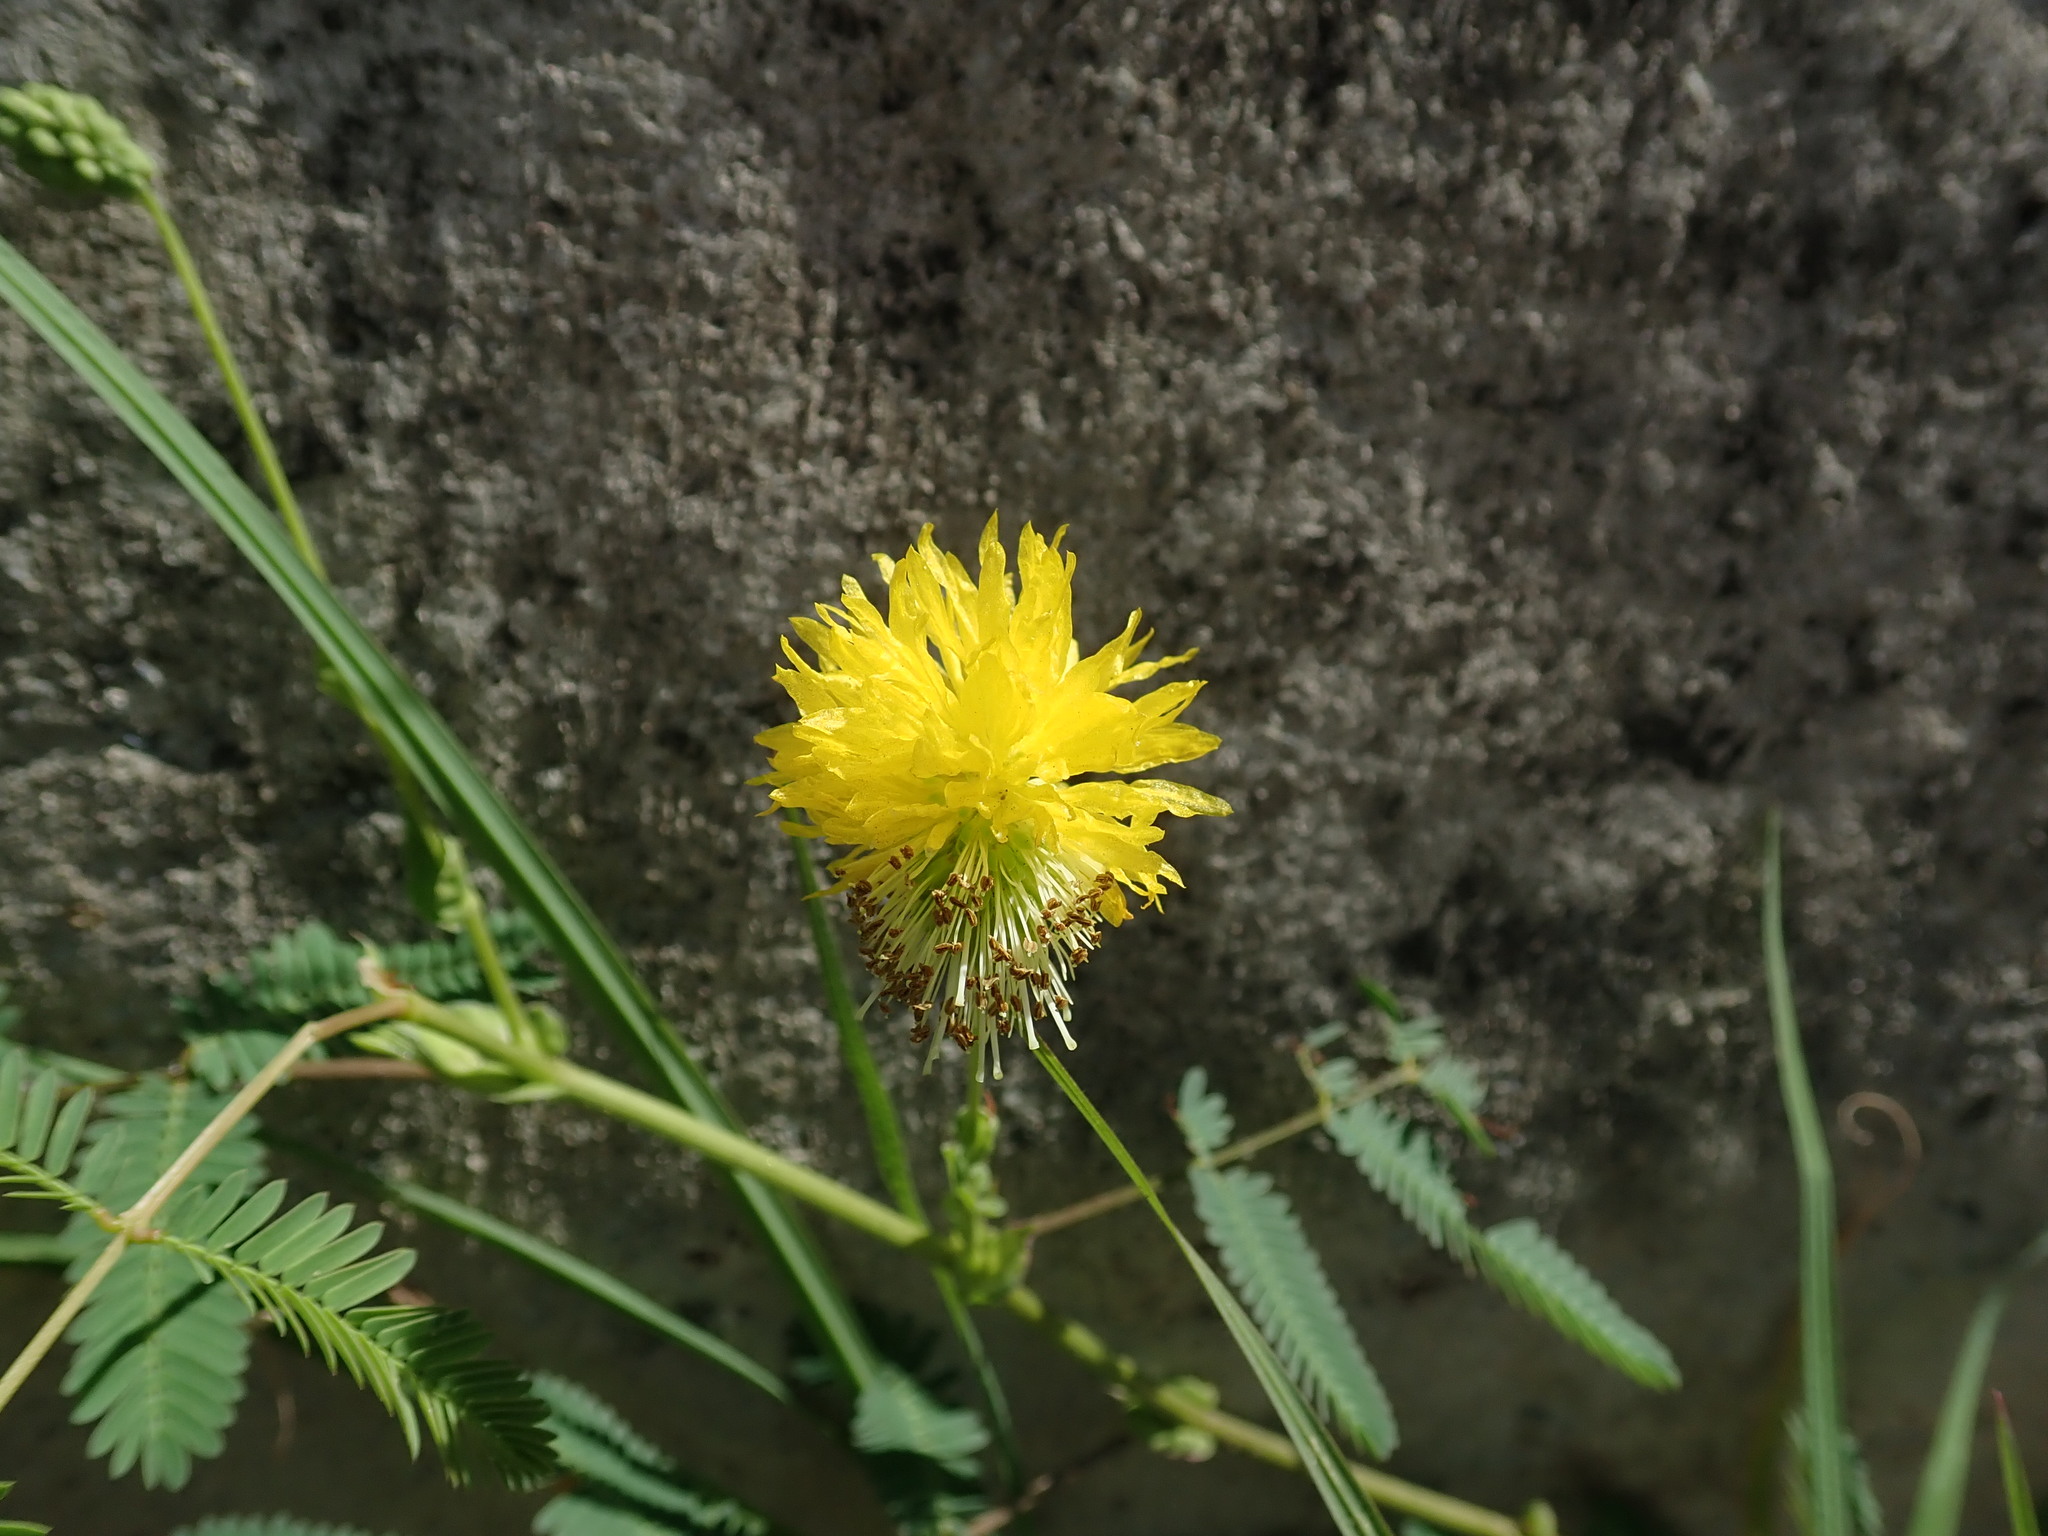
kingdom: Plantae
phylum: Tracheophyta
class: Magnoliopsida
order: Fabales
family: Fabaceae
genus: Neptunia
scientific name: Neptunia plena
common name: Dead and awake
